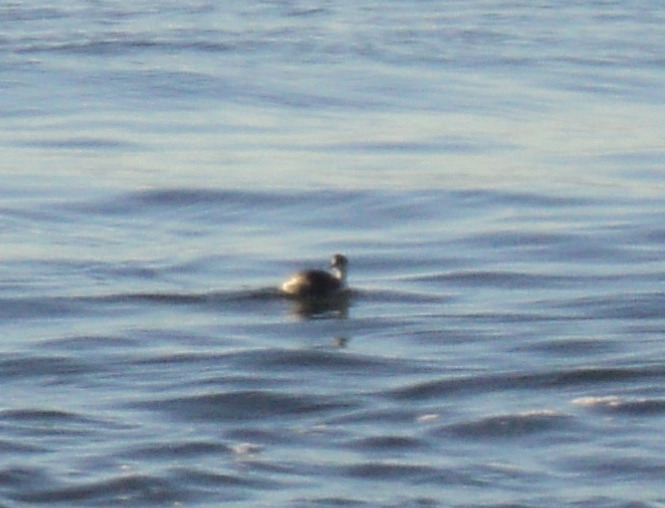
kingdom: Animalia
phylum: Chordata
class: Aves
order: Podicipediformes
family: Podicipedidae
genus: Podiceps
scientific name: Podiceps
